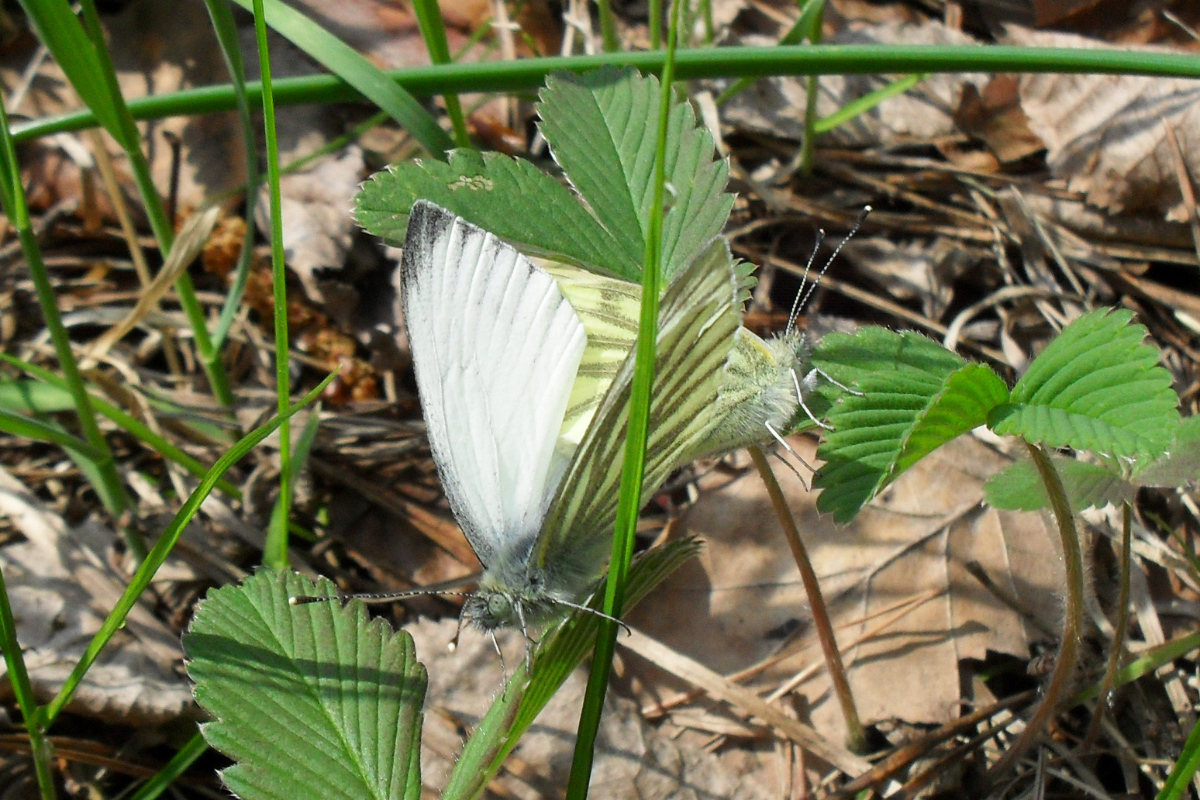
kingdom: Animalia
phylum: Arthropoda
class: Insecta
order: Lepidoptera
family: Pieridae
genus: Pieris
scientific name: Pieris napi
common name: Green-veined white
